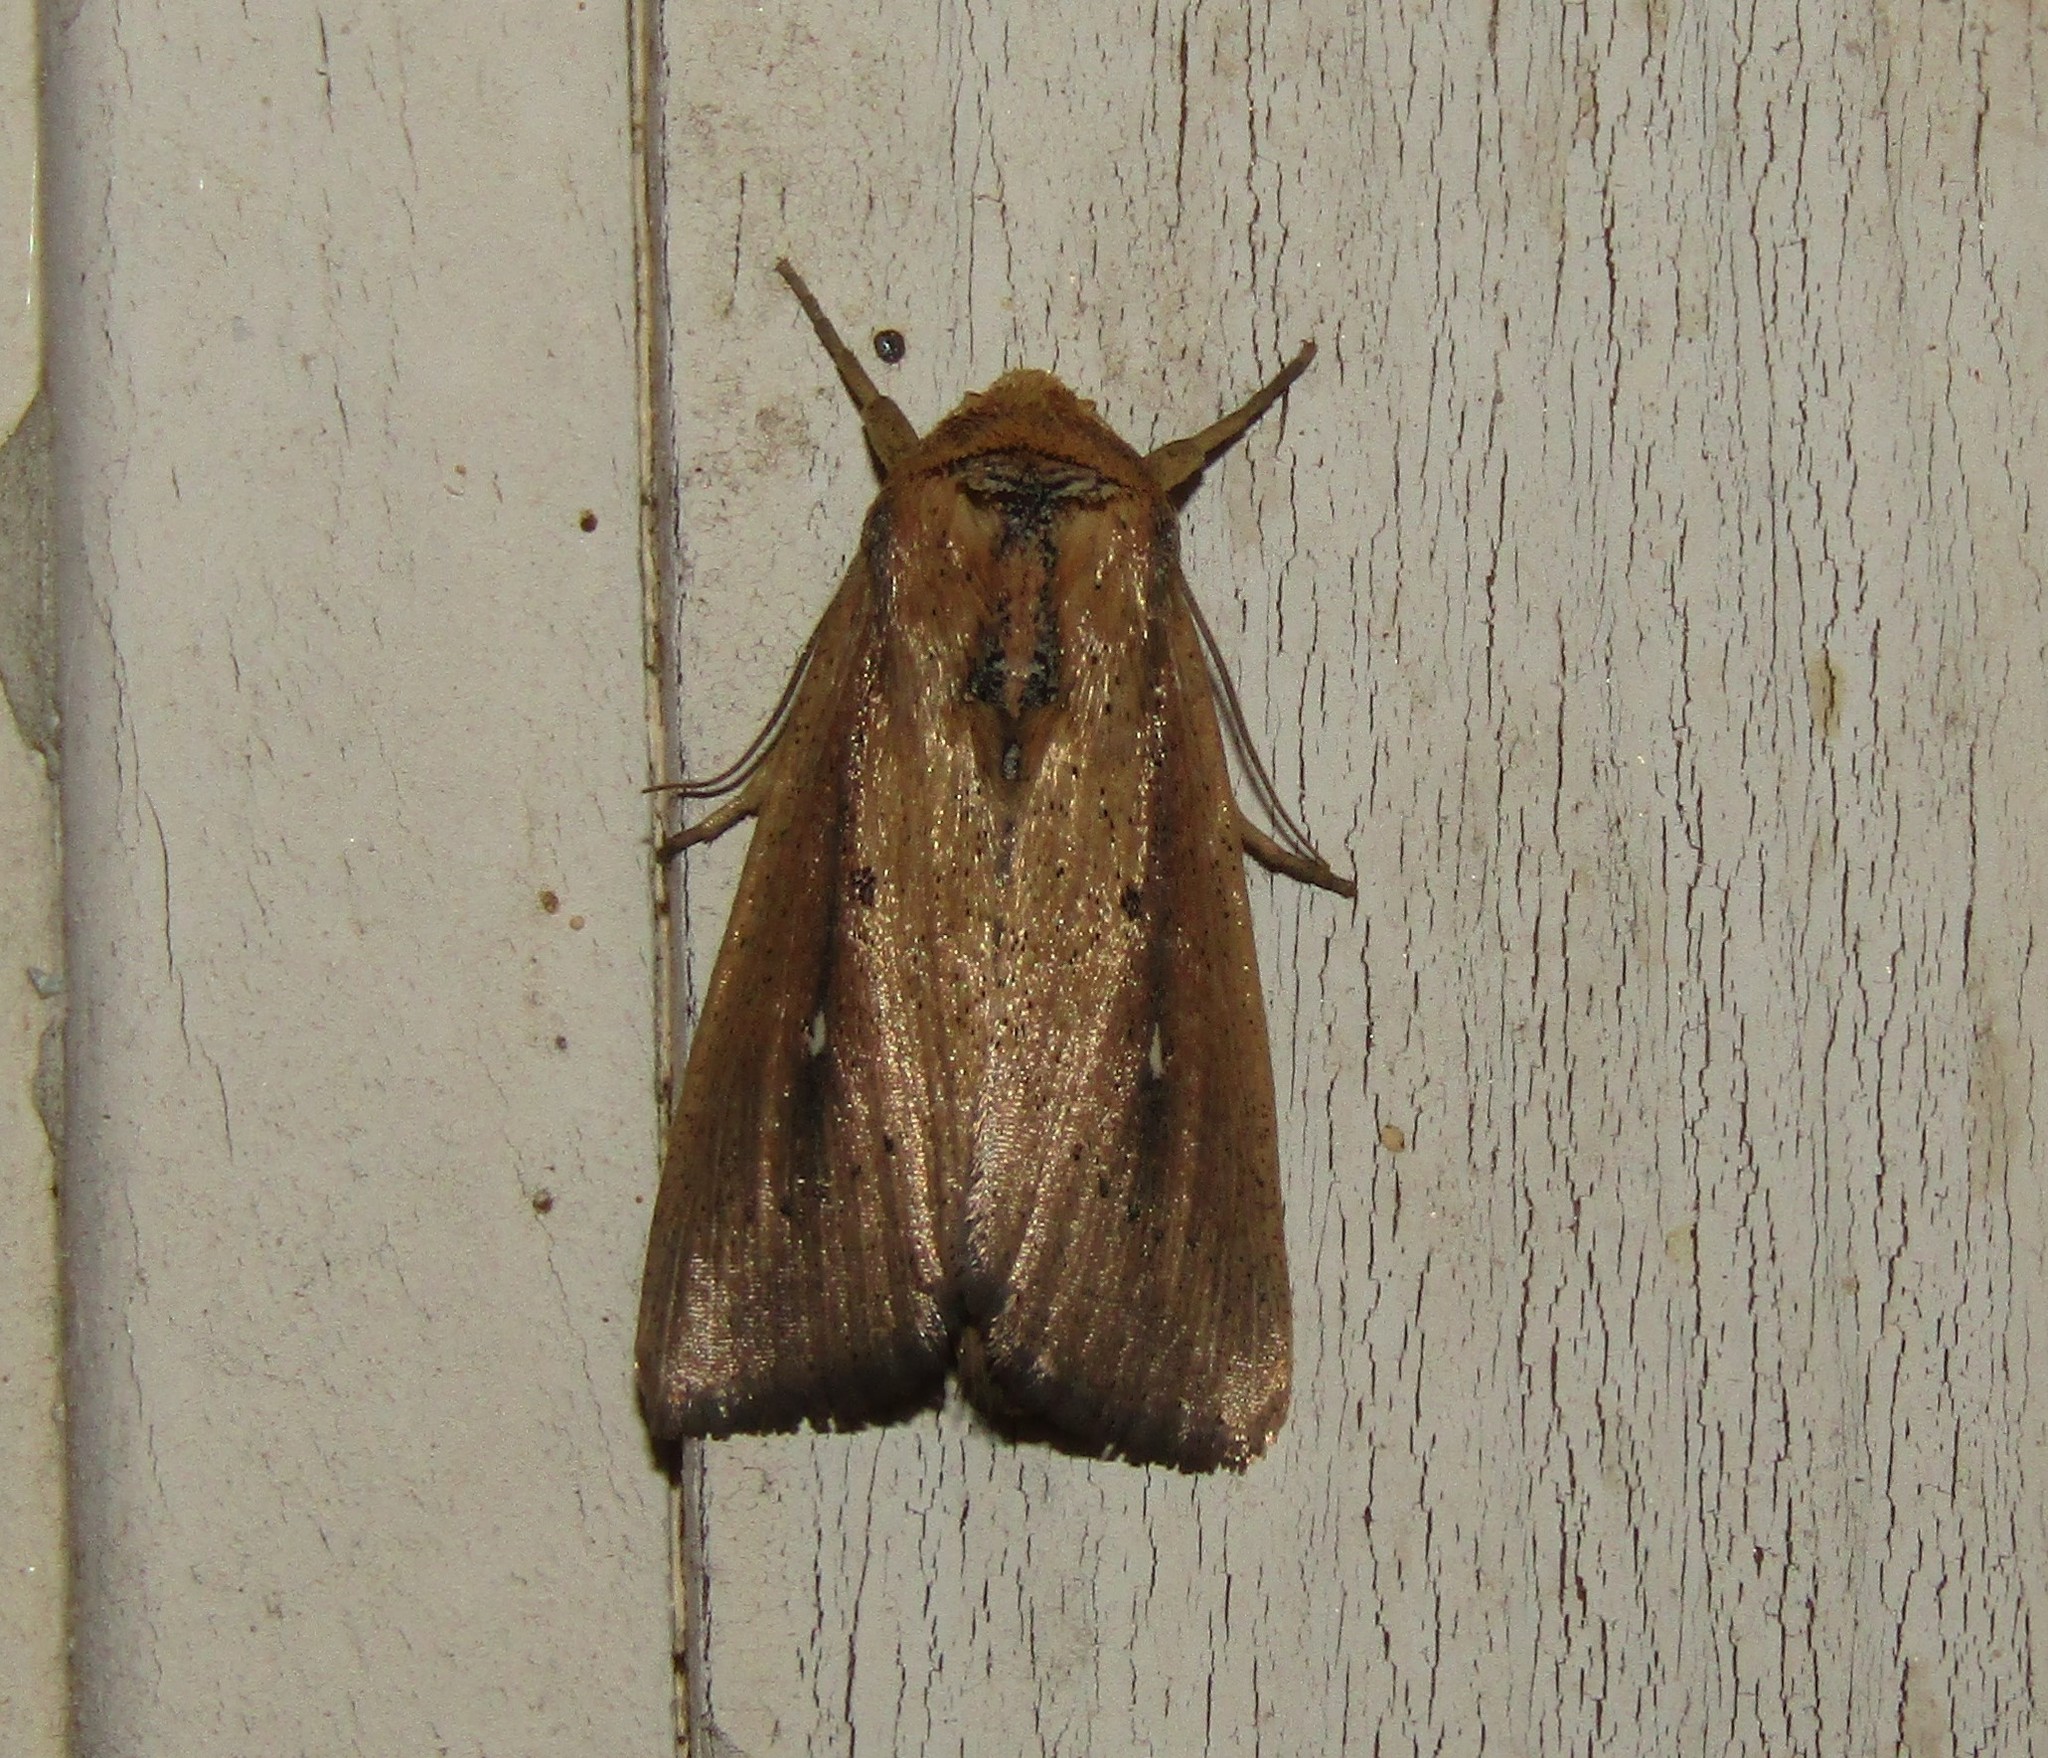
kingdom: Animalia
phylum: Arthropoda
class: Insecta
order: Lepidoptera
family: Noctuidae
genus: Leucania
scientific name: Leucania scirpicola
